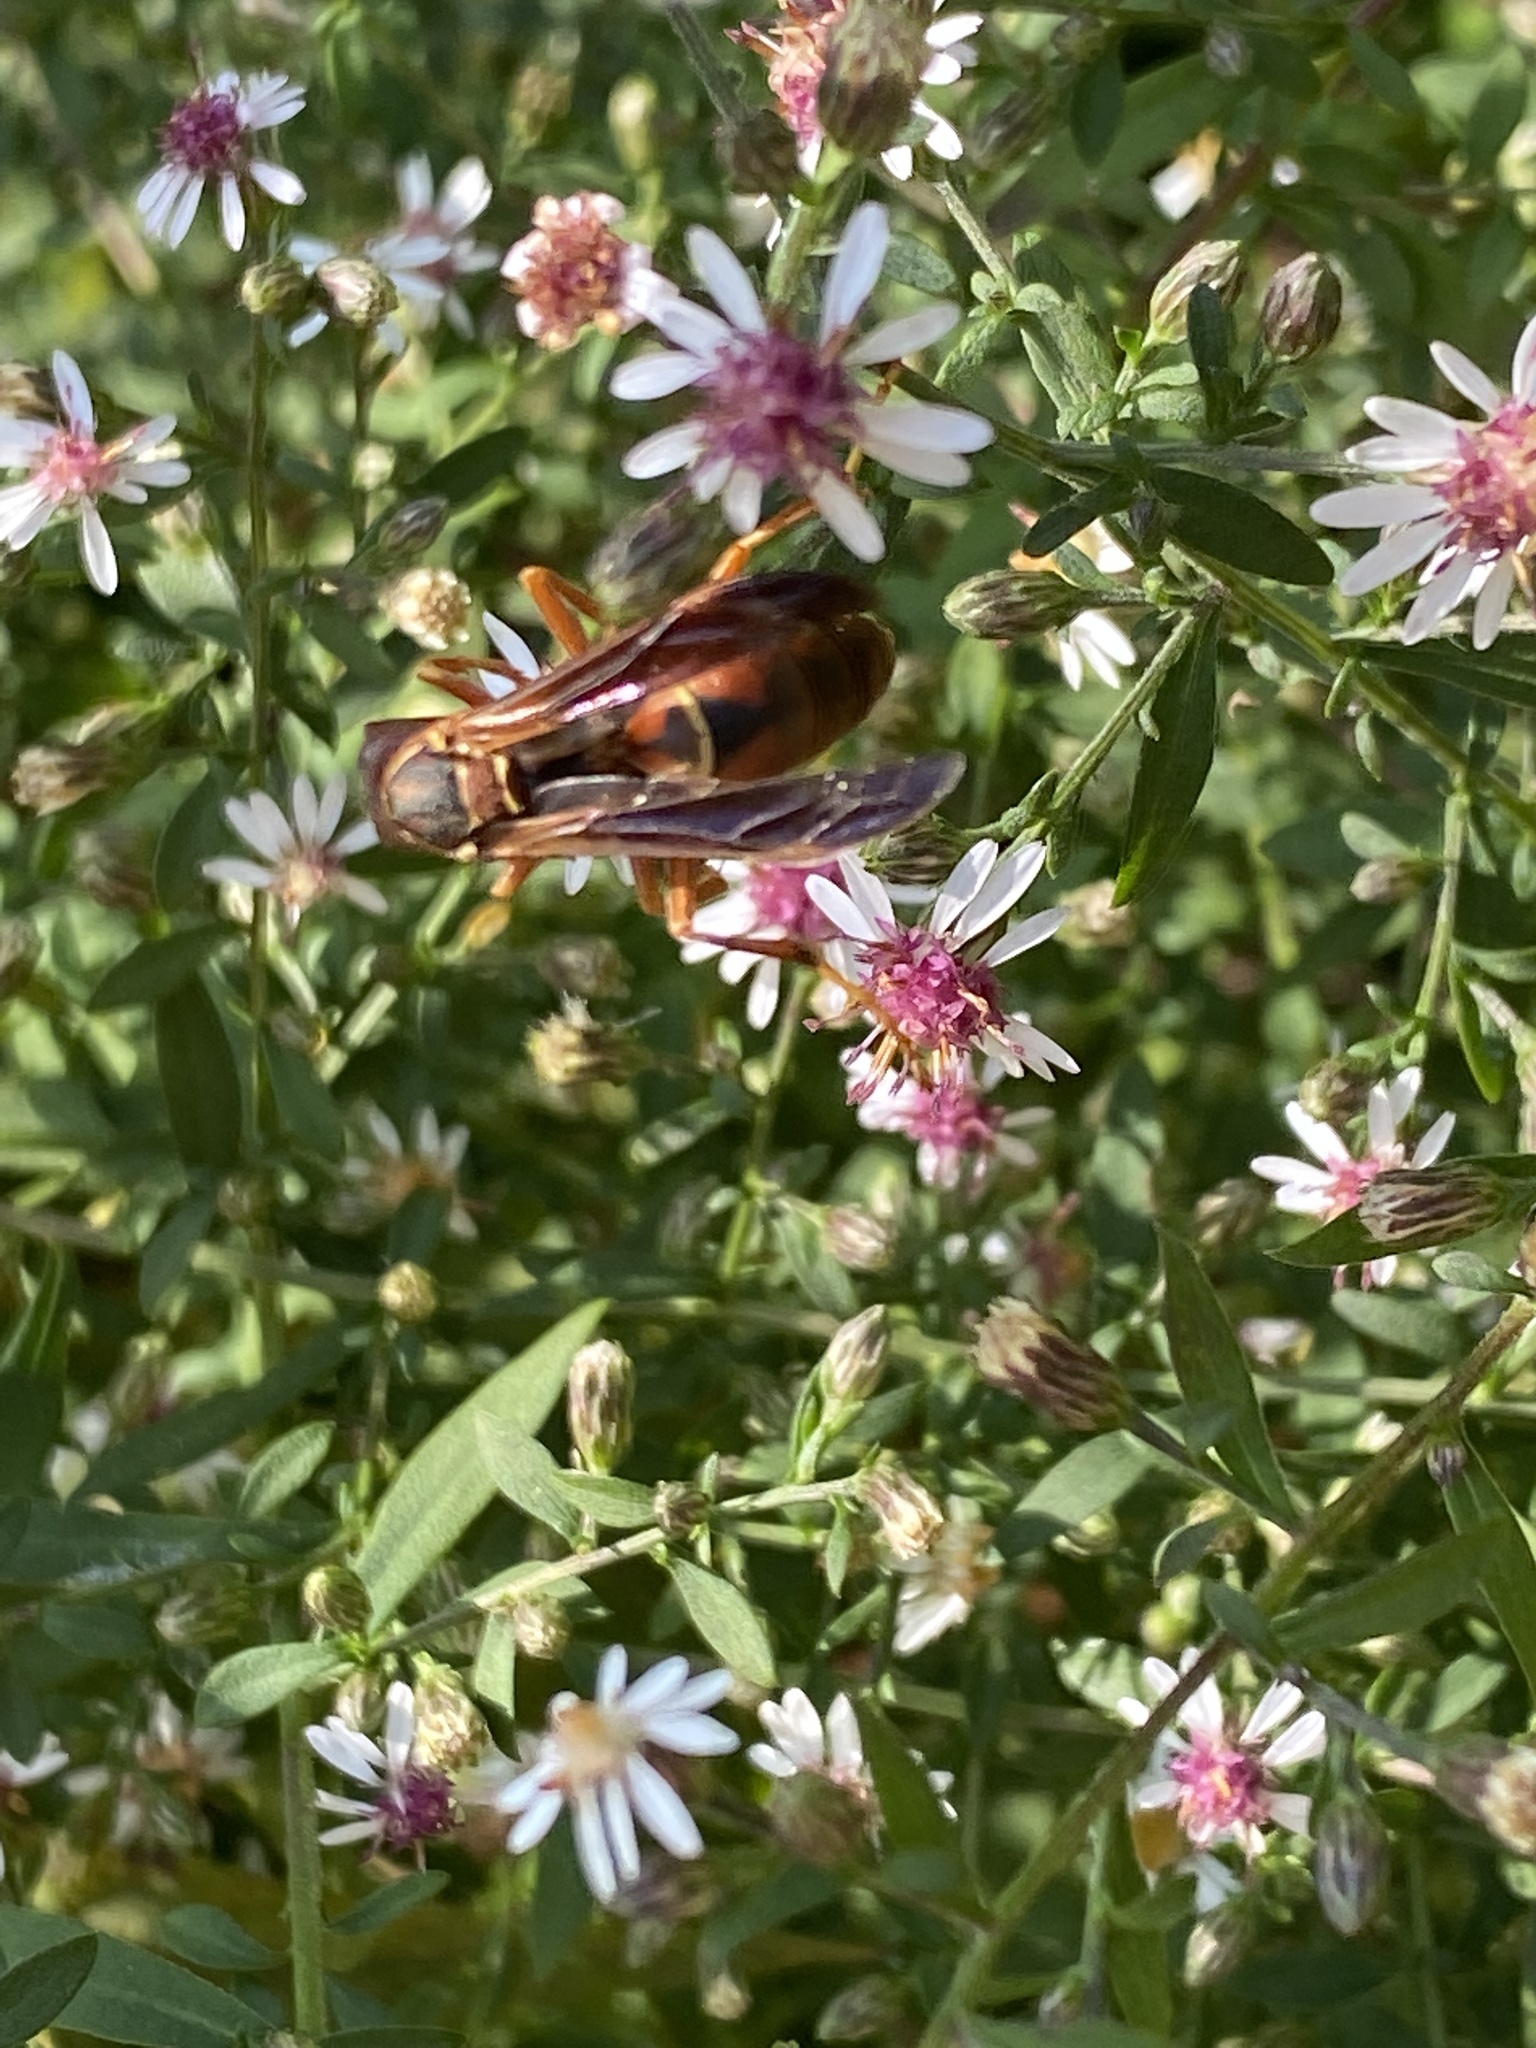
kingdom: Animalia
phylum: Arthropoda
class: Insecta
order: Hymenoptera
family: Eumenidae
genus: Polistes
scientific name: Polistes fuscatus
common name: Dark paper wasp
